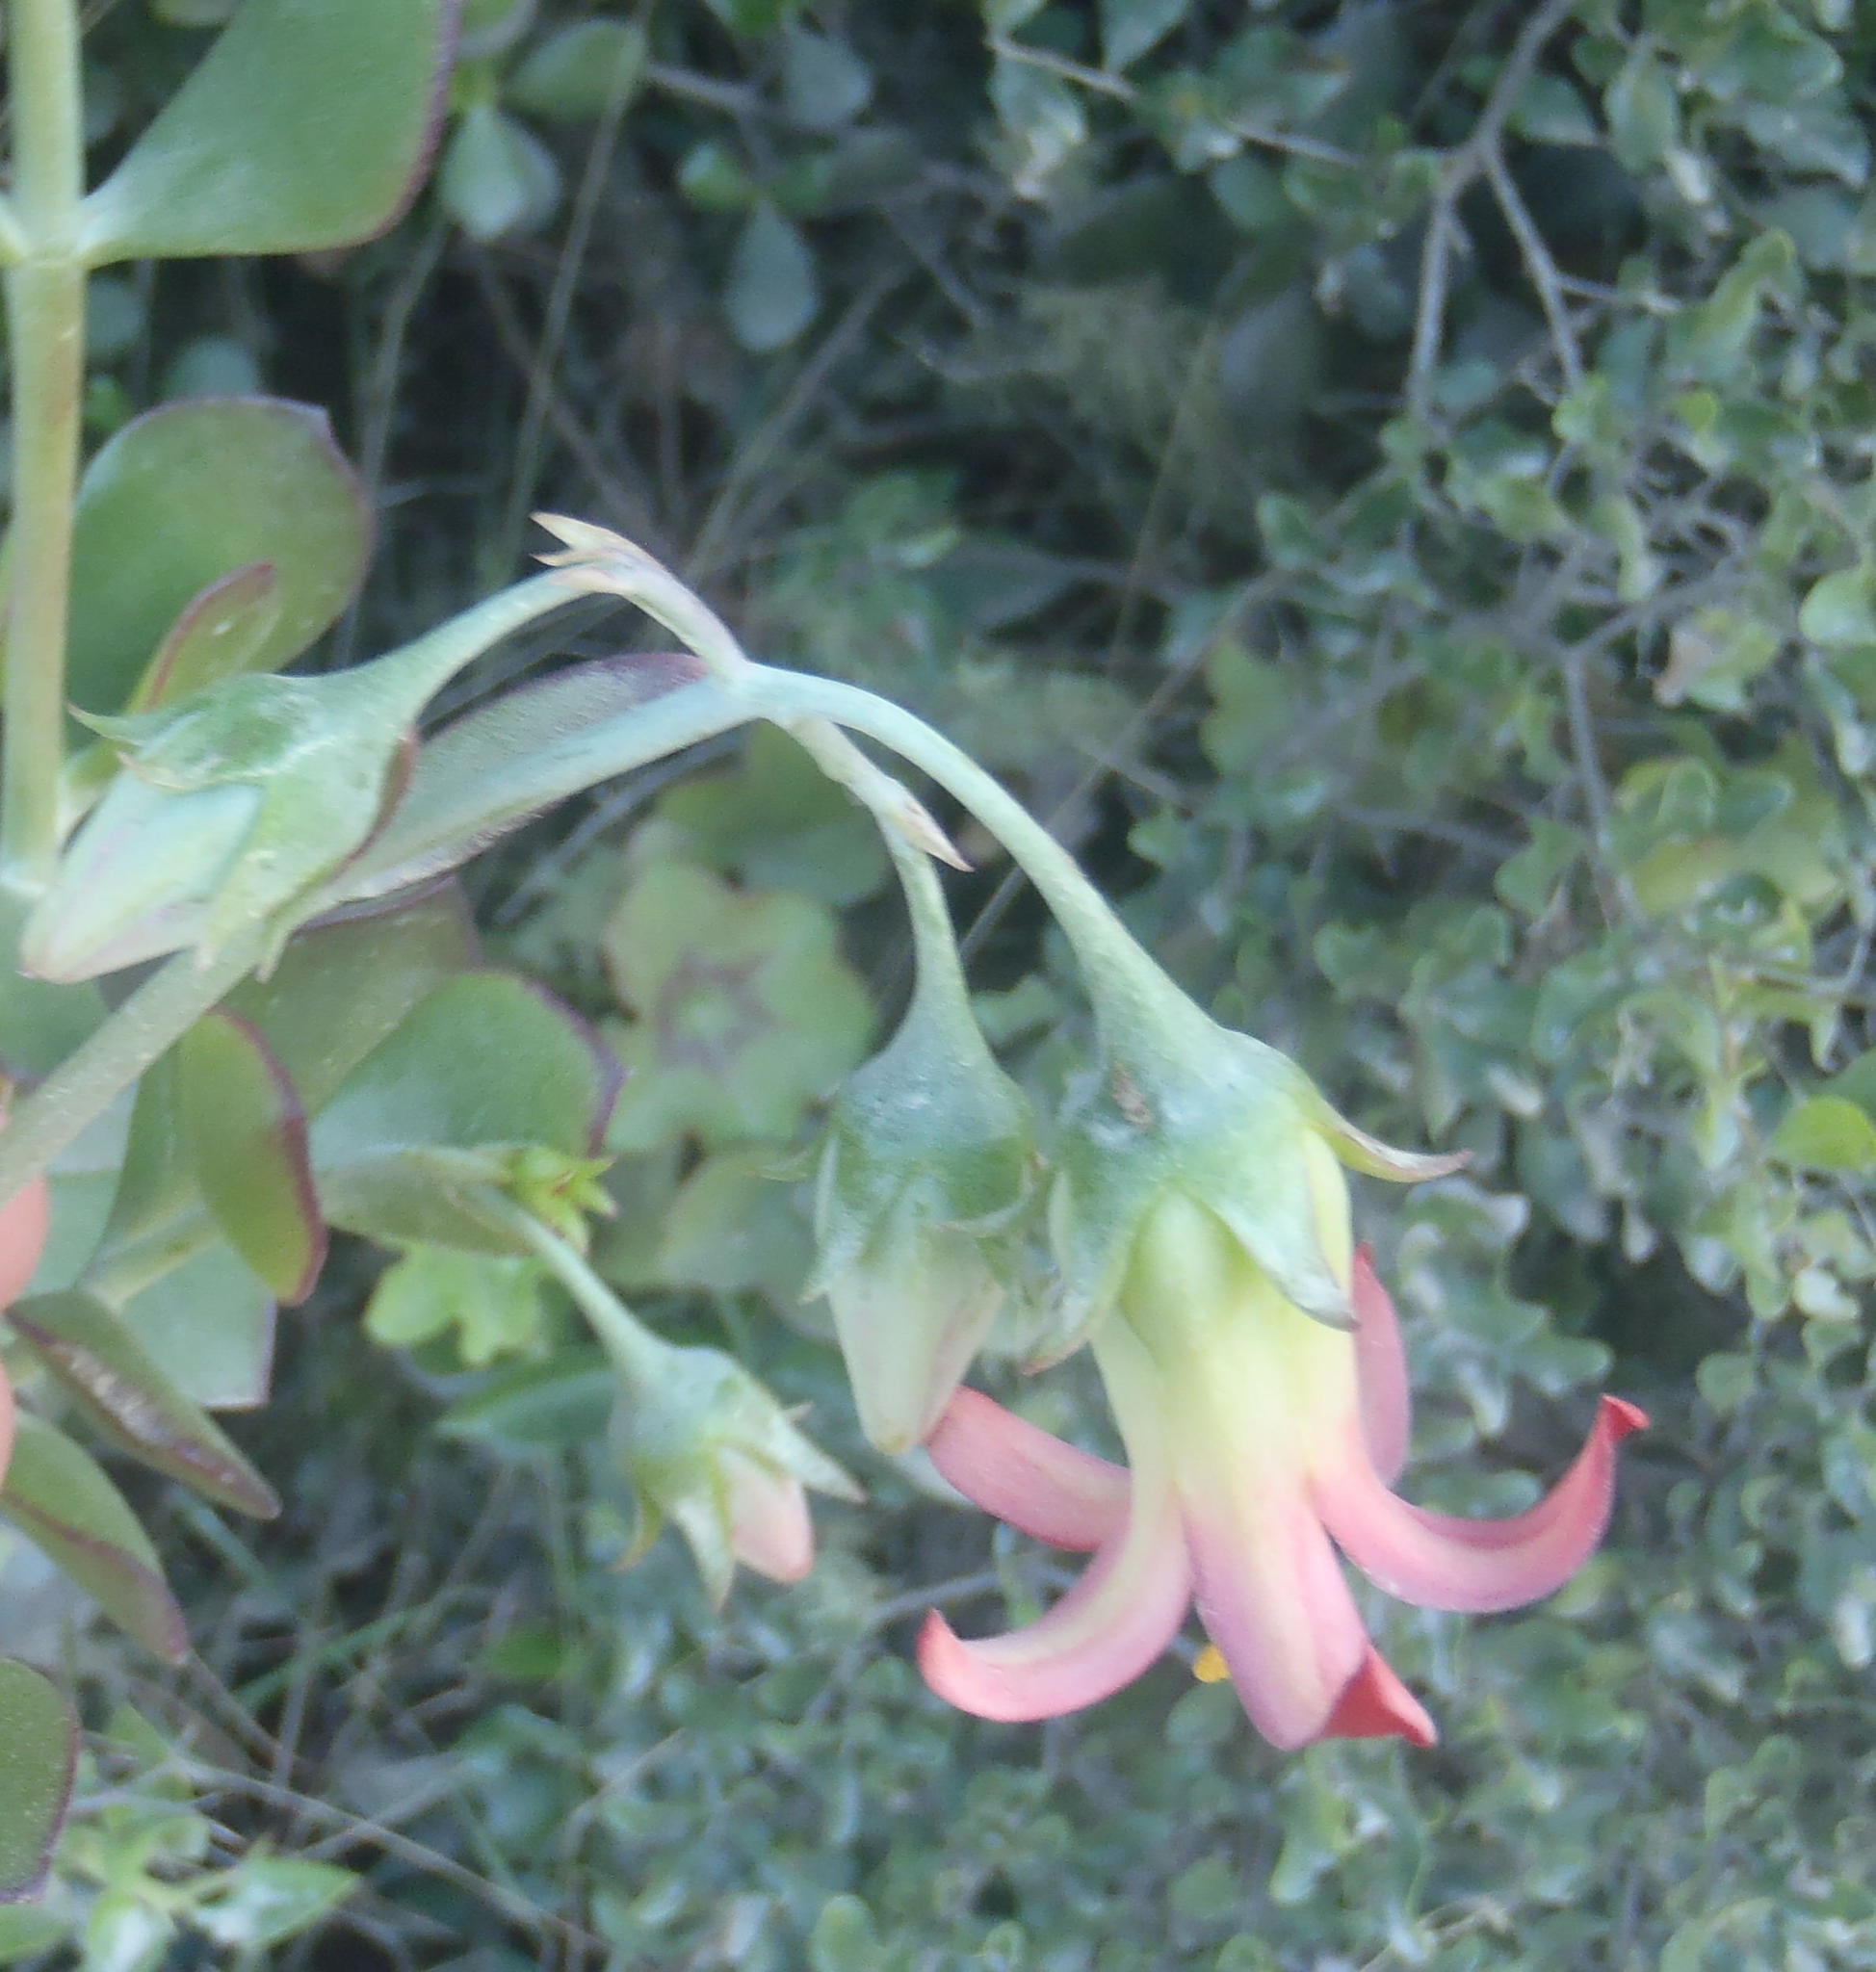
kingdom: Plantae
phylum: Tracheophyta
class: Magnoliopsida
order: Saxifragales
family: Crassulaceae
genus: Cotyledon
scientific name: Cotyledon woodii
